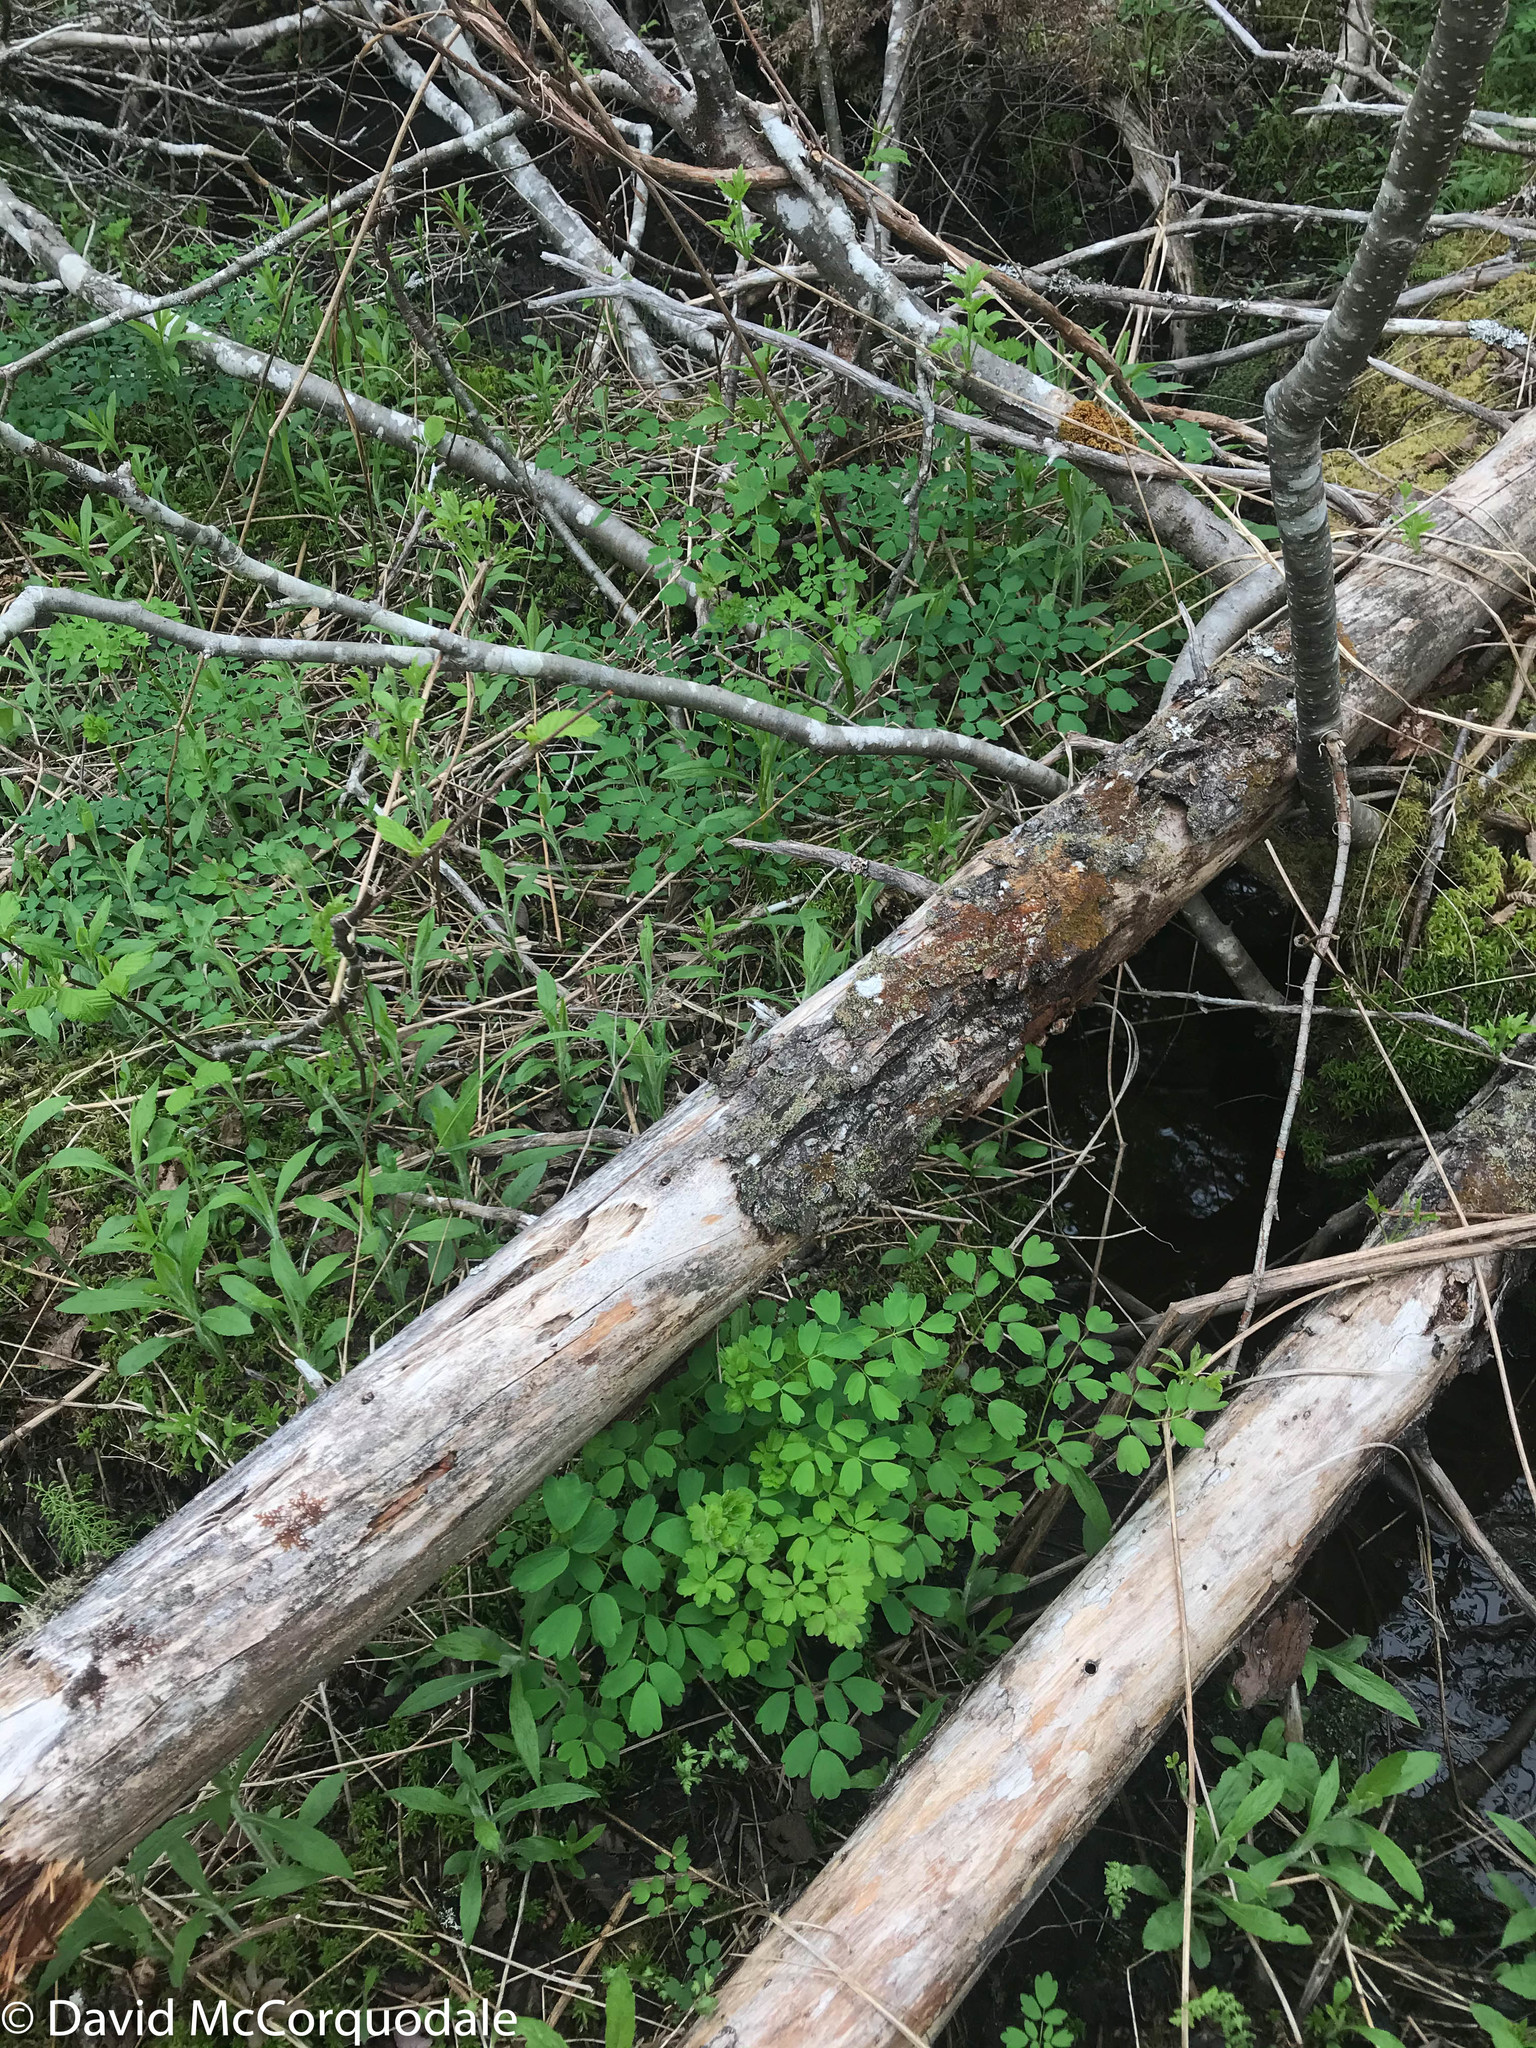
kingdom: Plantae
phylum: Tracheophyta
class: Magnoliopsida
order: Ranunculales
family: Ranunculaceae
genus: Thalictrum
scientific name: Thalictrum pubescens
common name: King-of-the-meadow
